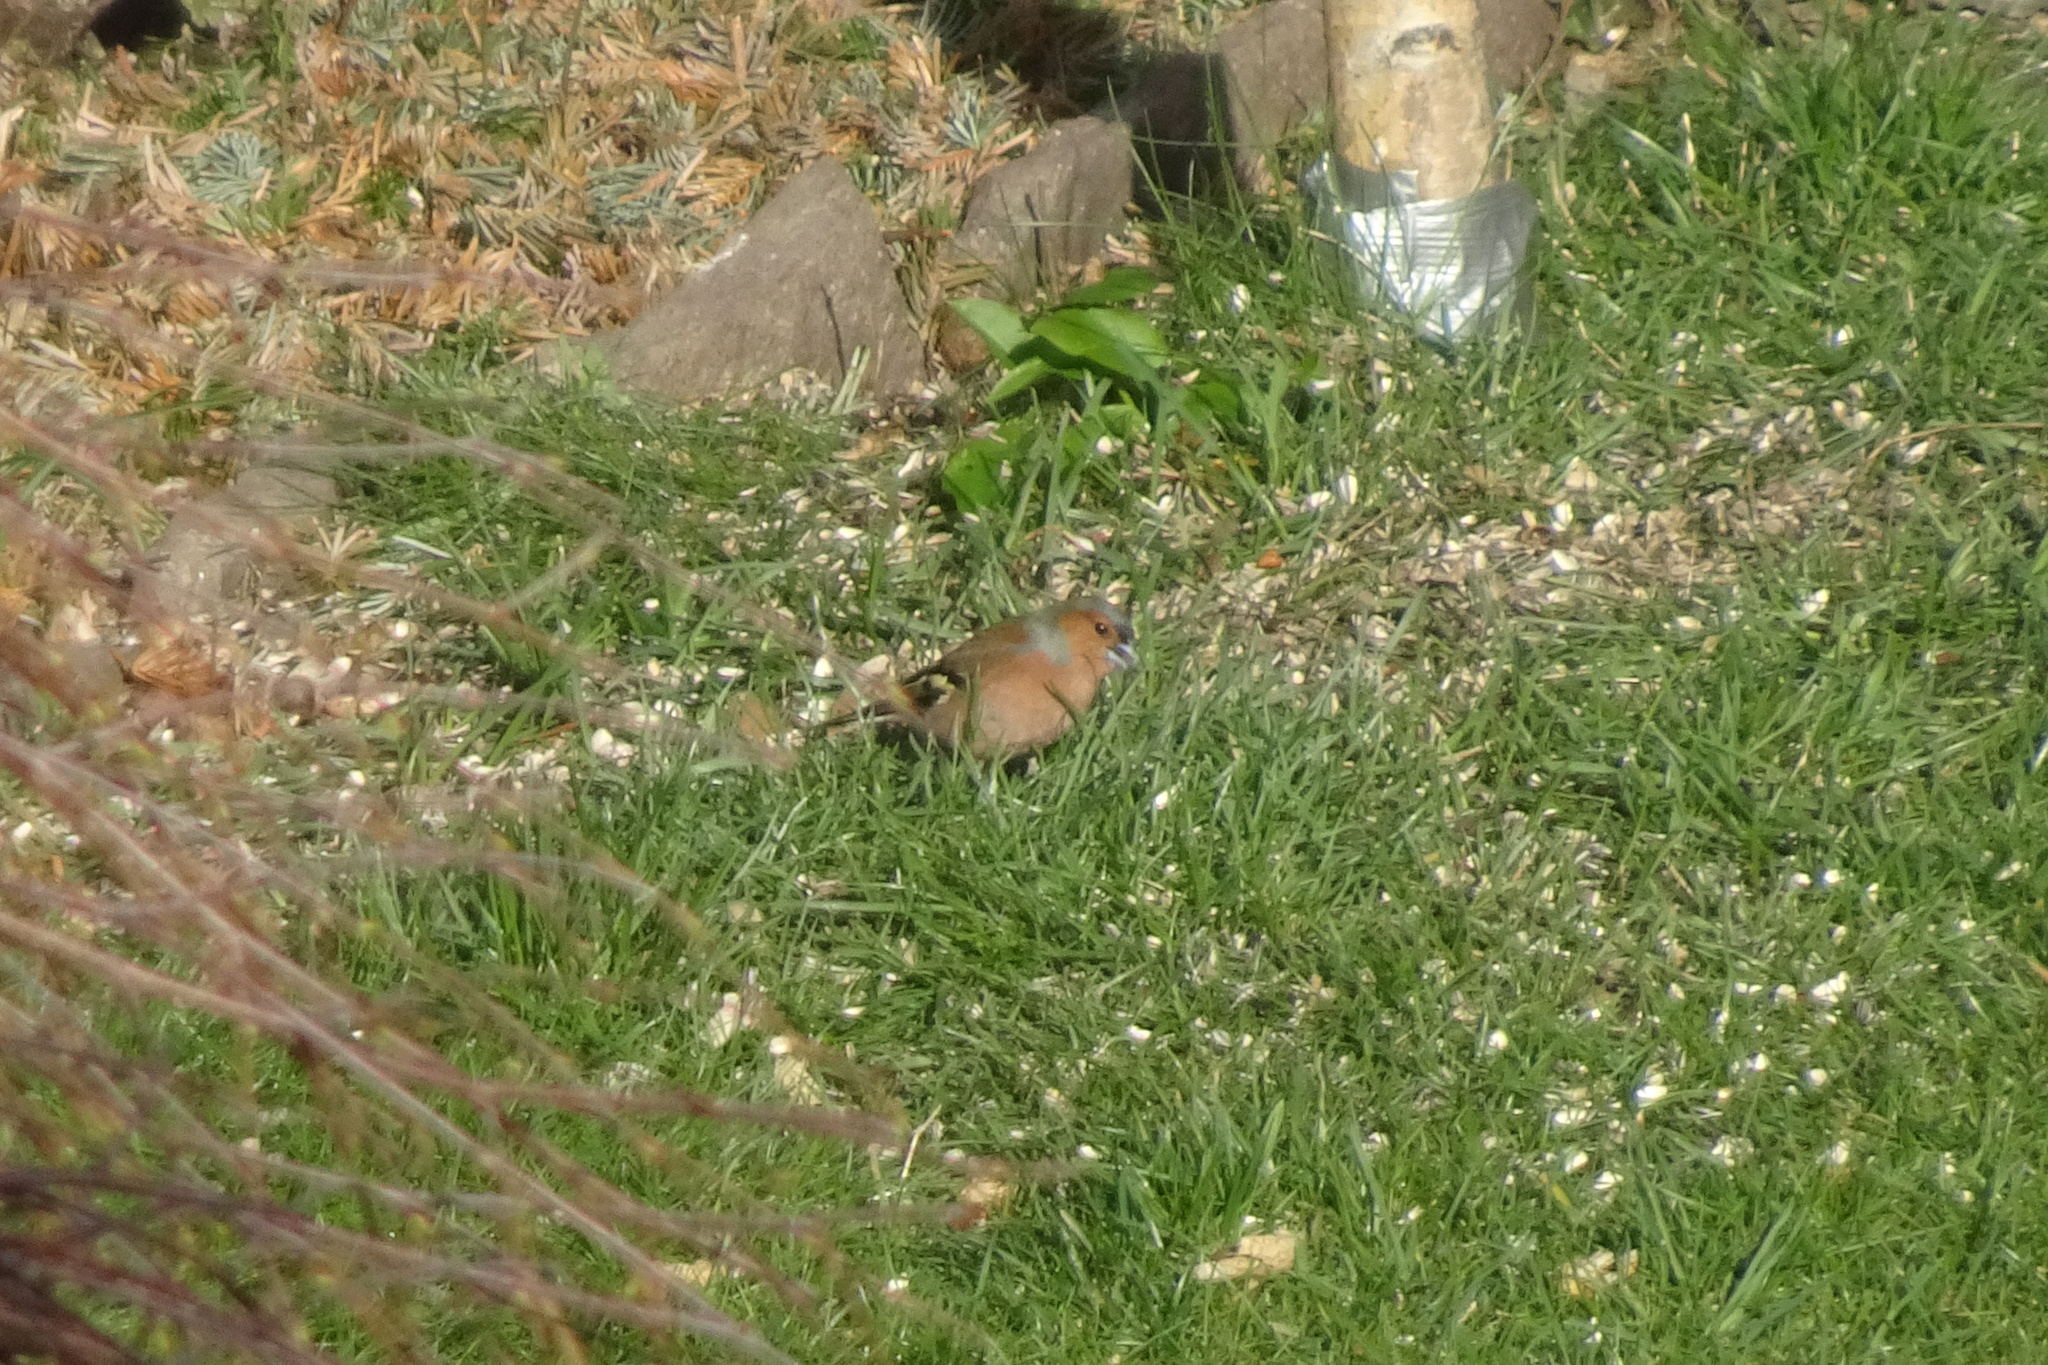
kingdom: Animalia
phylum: Chordata
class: Aves
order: Passeriformes
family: Fringillidae
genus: Fringilla
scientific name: Fringilla coelebs
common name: Common chaffinch
